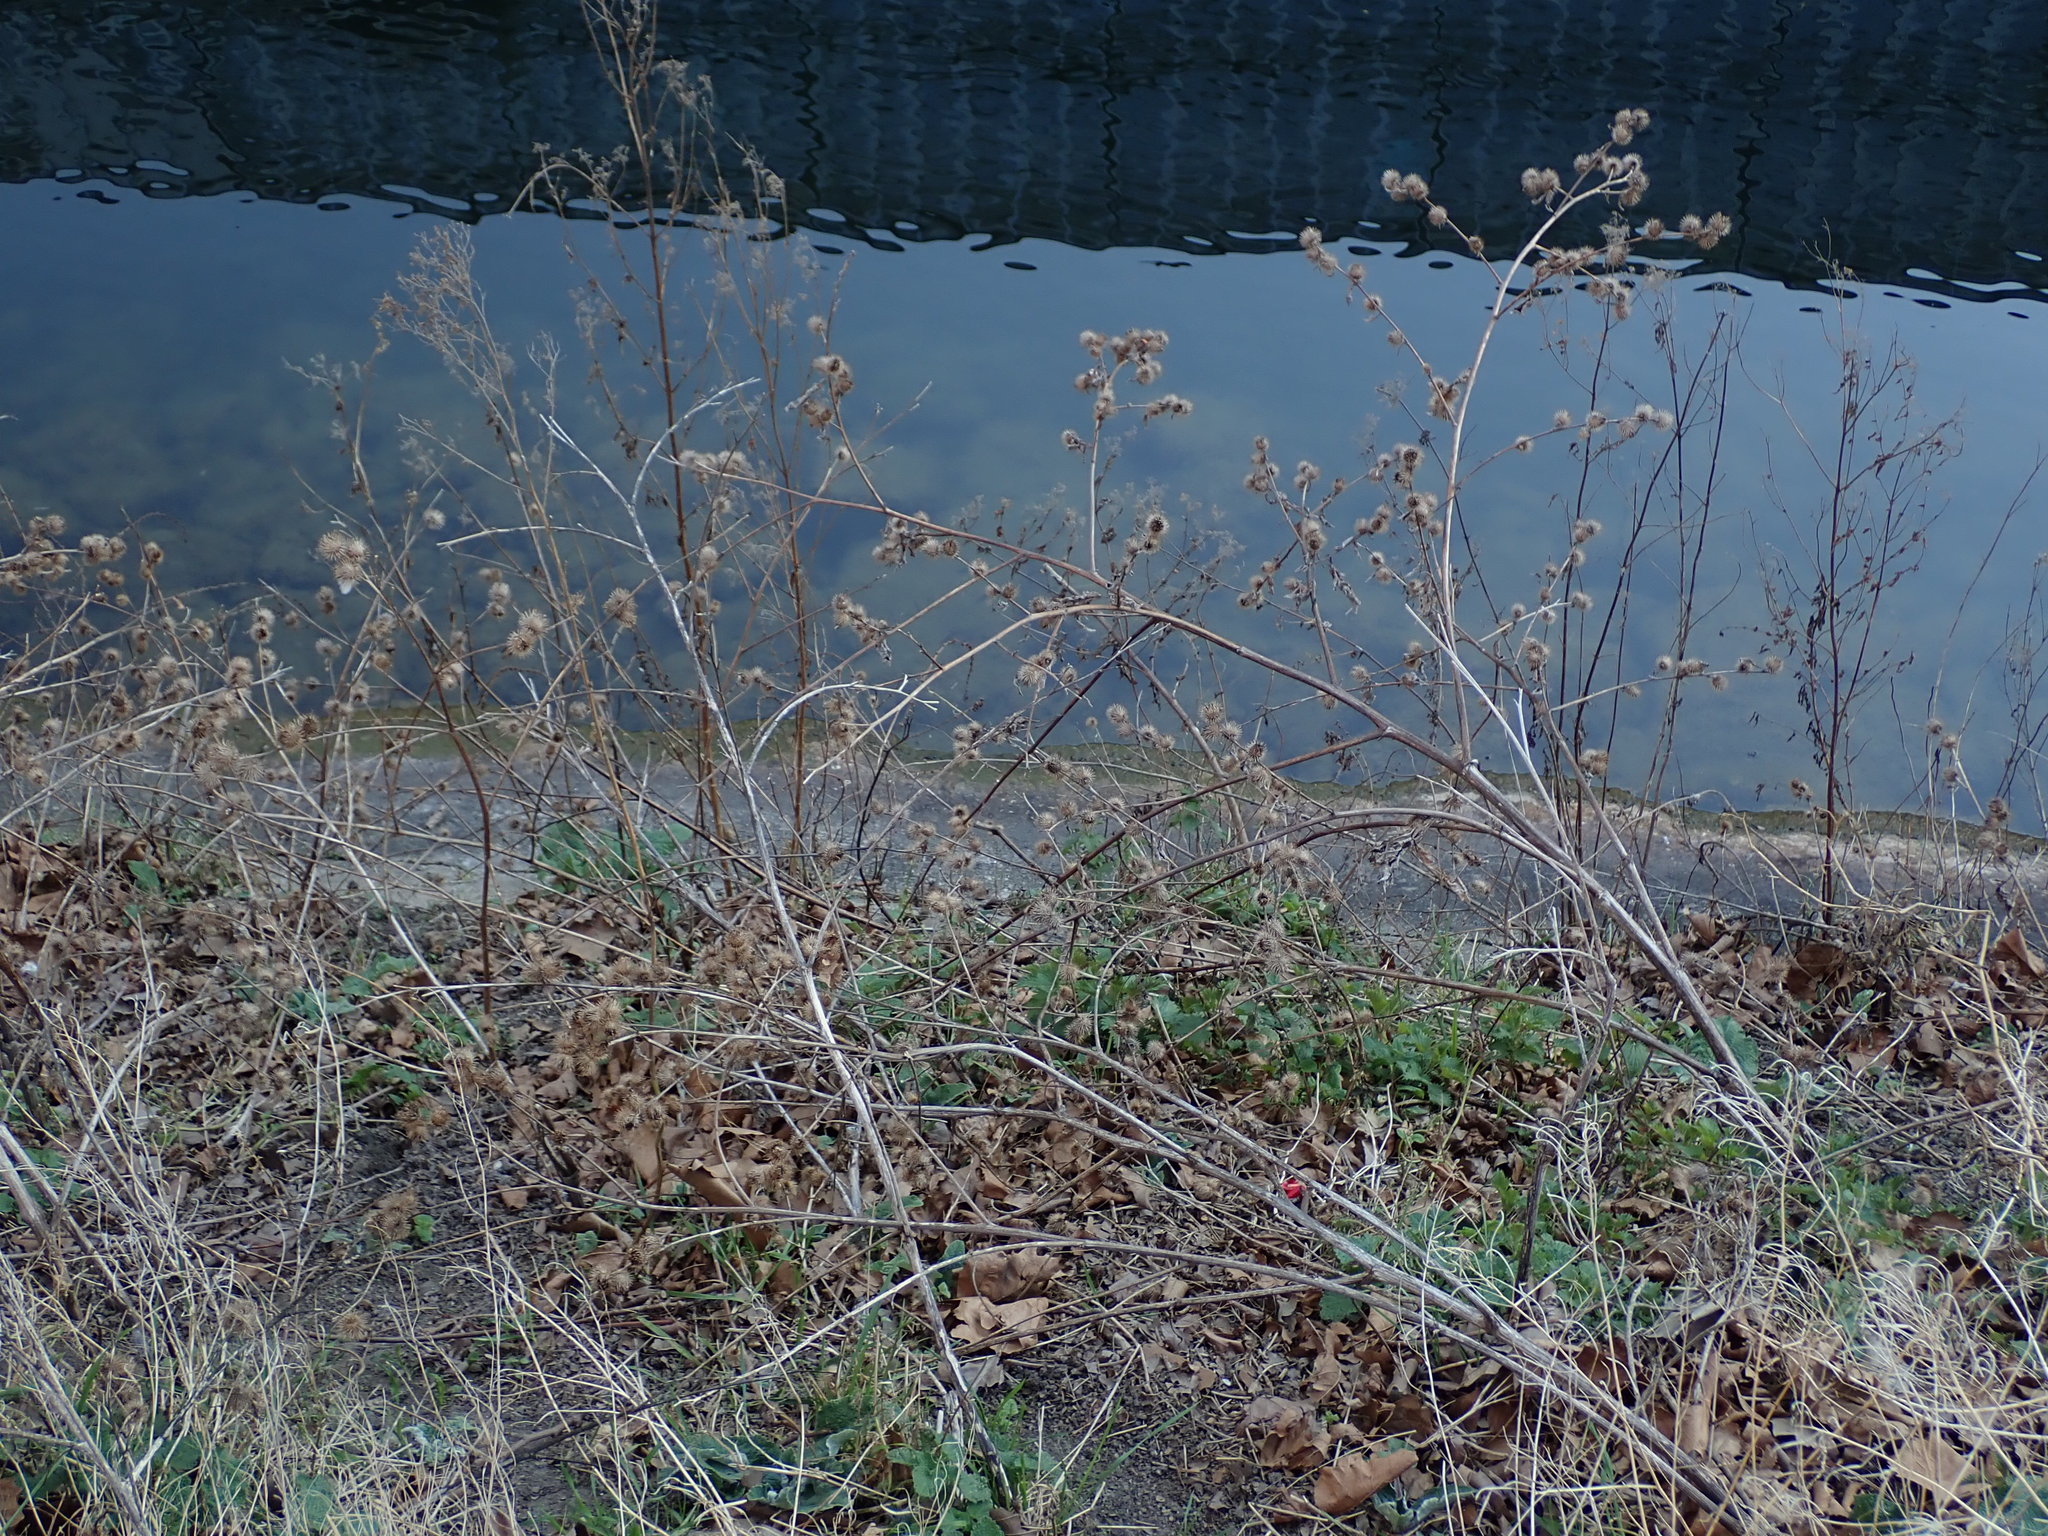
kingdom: Plantae
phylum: Tracheophyta
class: Magnoliopsida
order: Asterales
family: Asteraceae
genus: Arctium
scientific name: Arctium minus
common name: Lesser burdock
